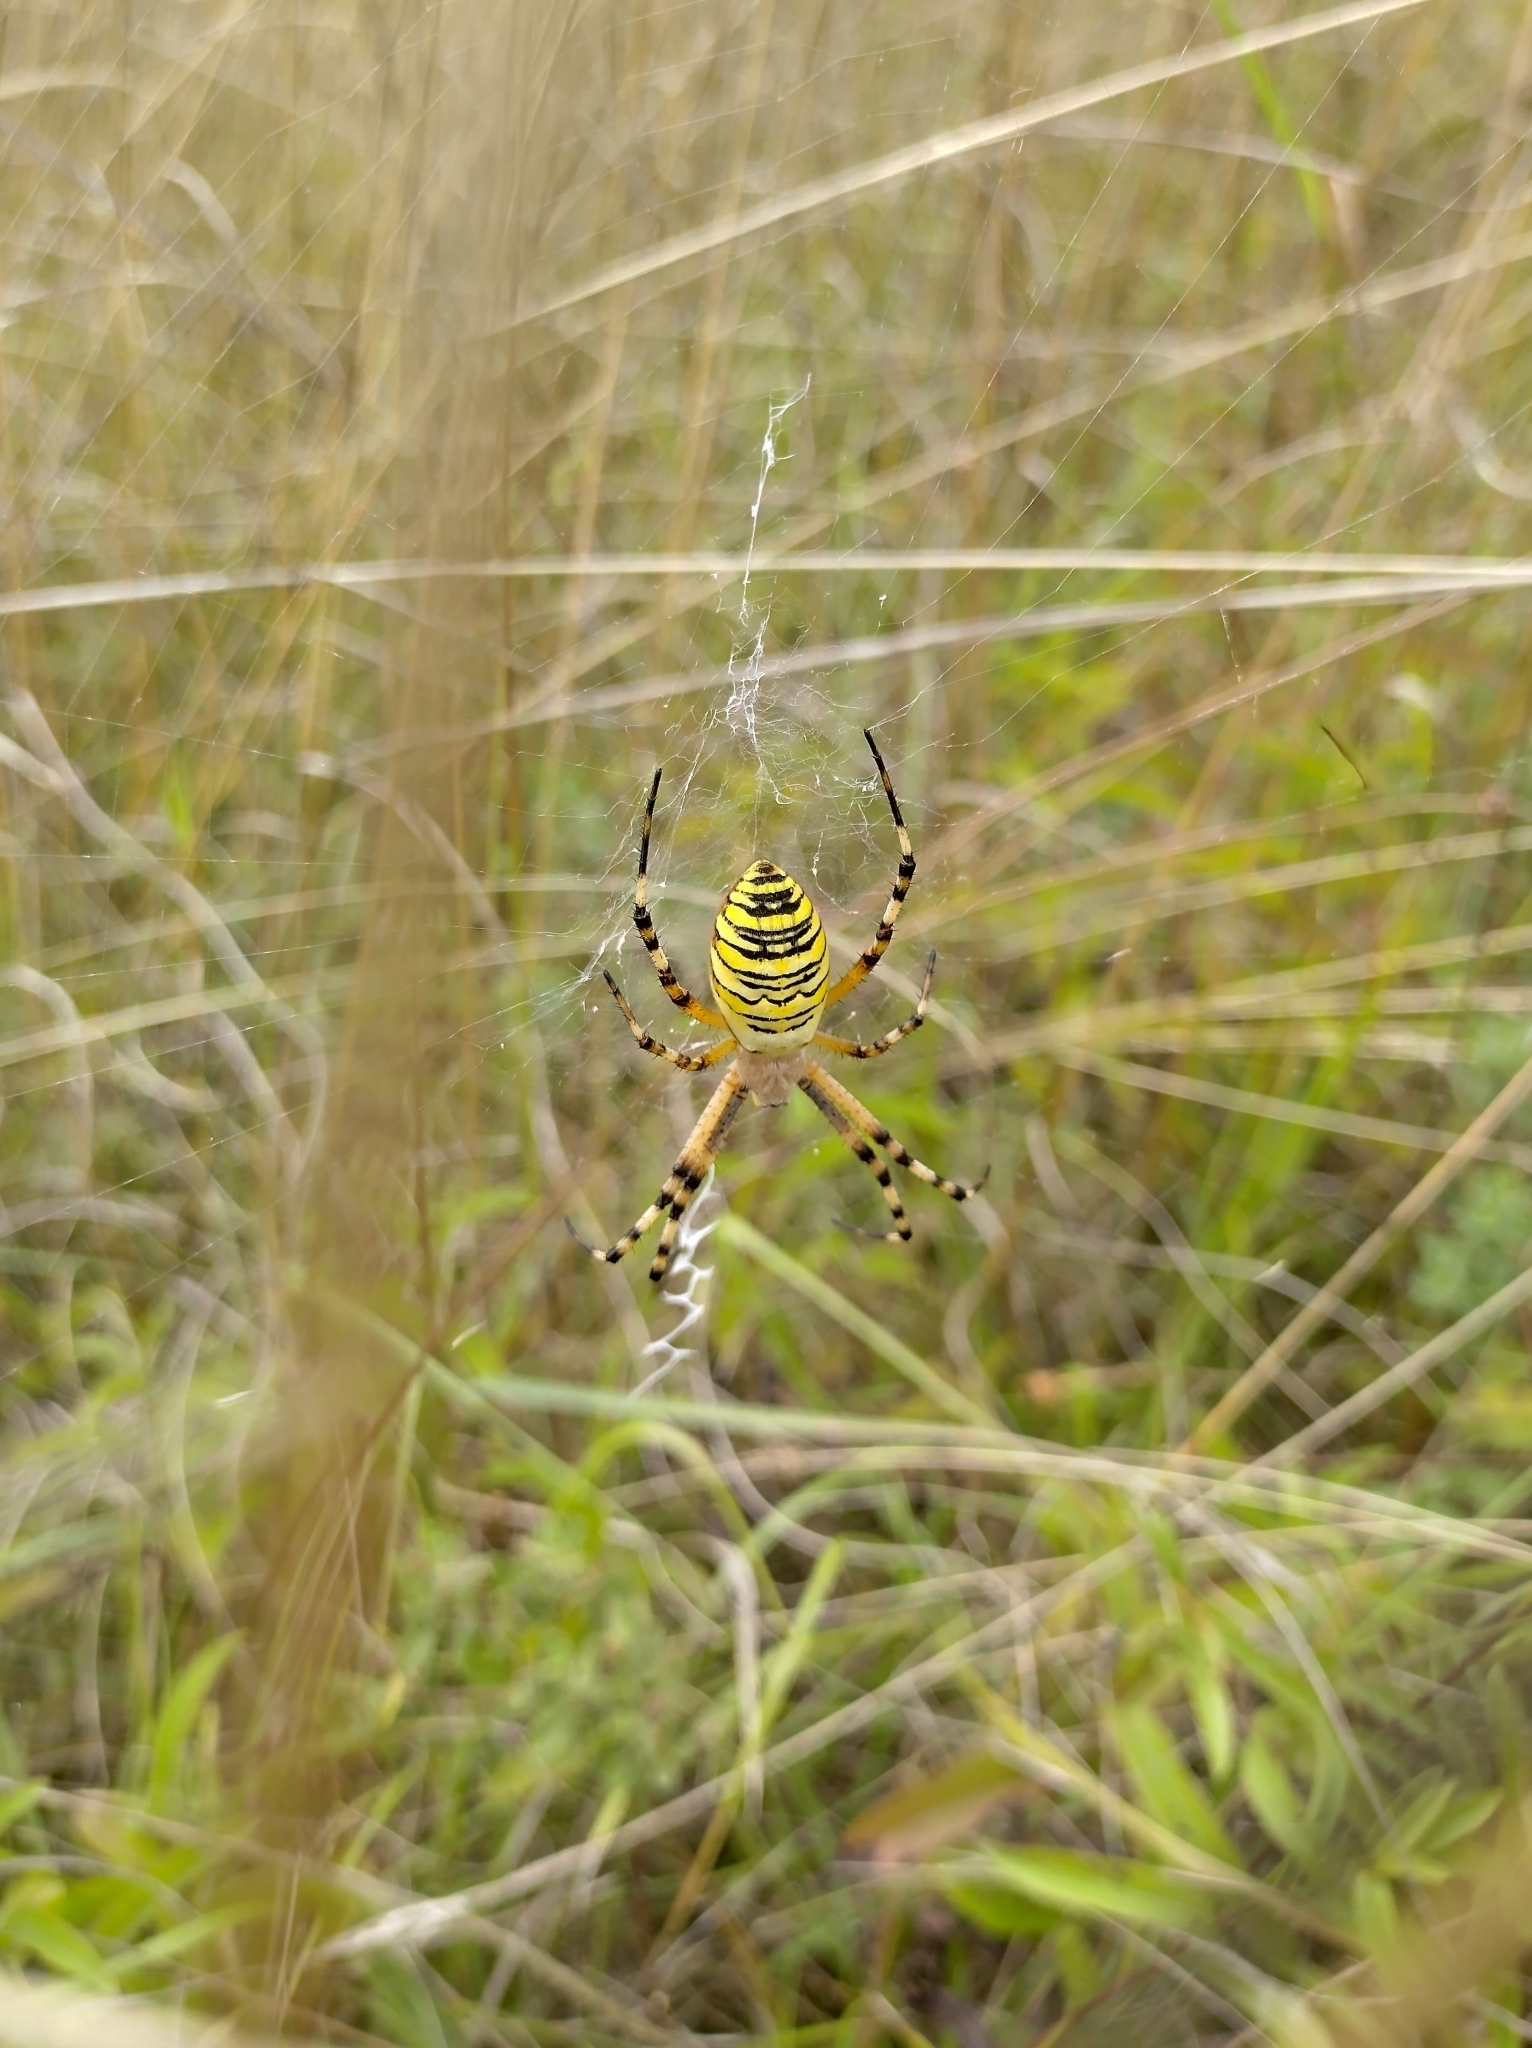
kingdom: Animalia
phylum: Arthropoda
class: Arachnida
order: Araneae
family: Araneidae
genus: Argiope
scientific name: Argiope bruennichi
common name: Wasp spider
